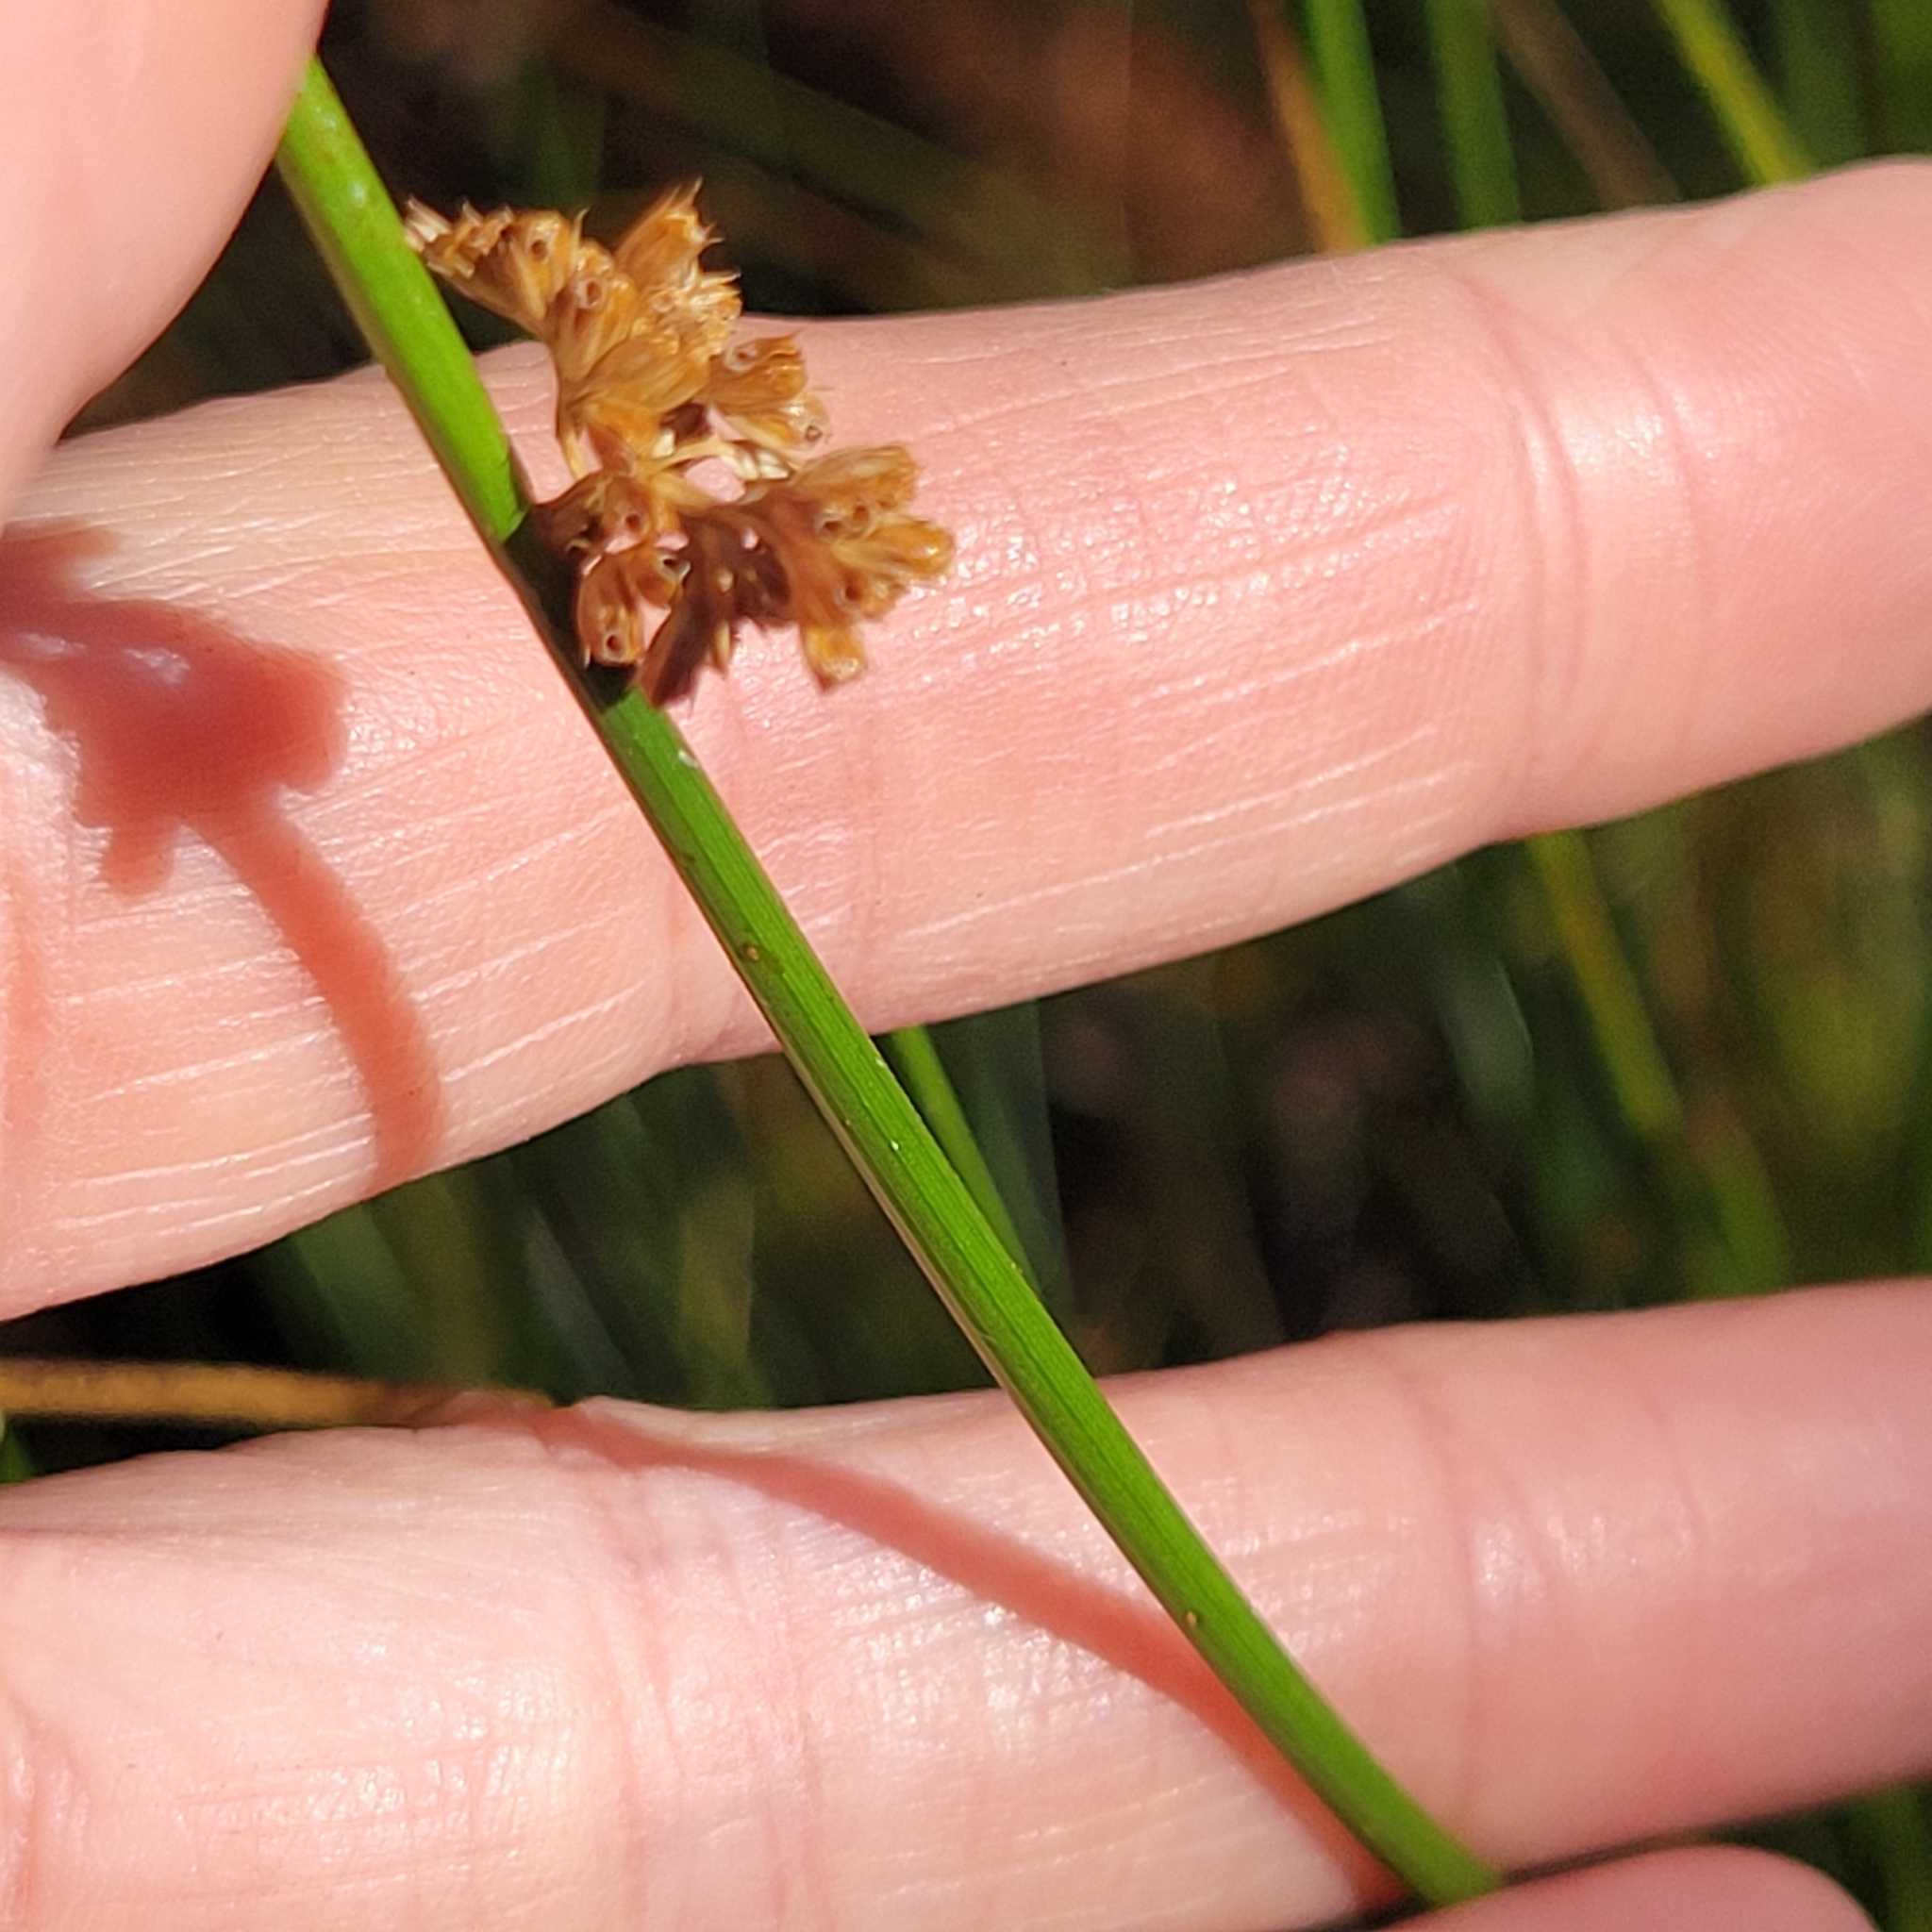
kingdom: Plantae
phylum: Tracheophyta
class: Liliopsida
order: Poales
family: Juncaceae
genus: Juncus
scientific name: Juncus effusus
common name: Soft rush
